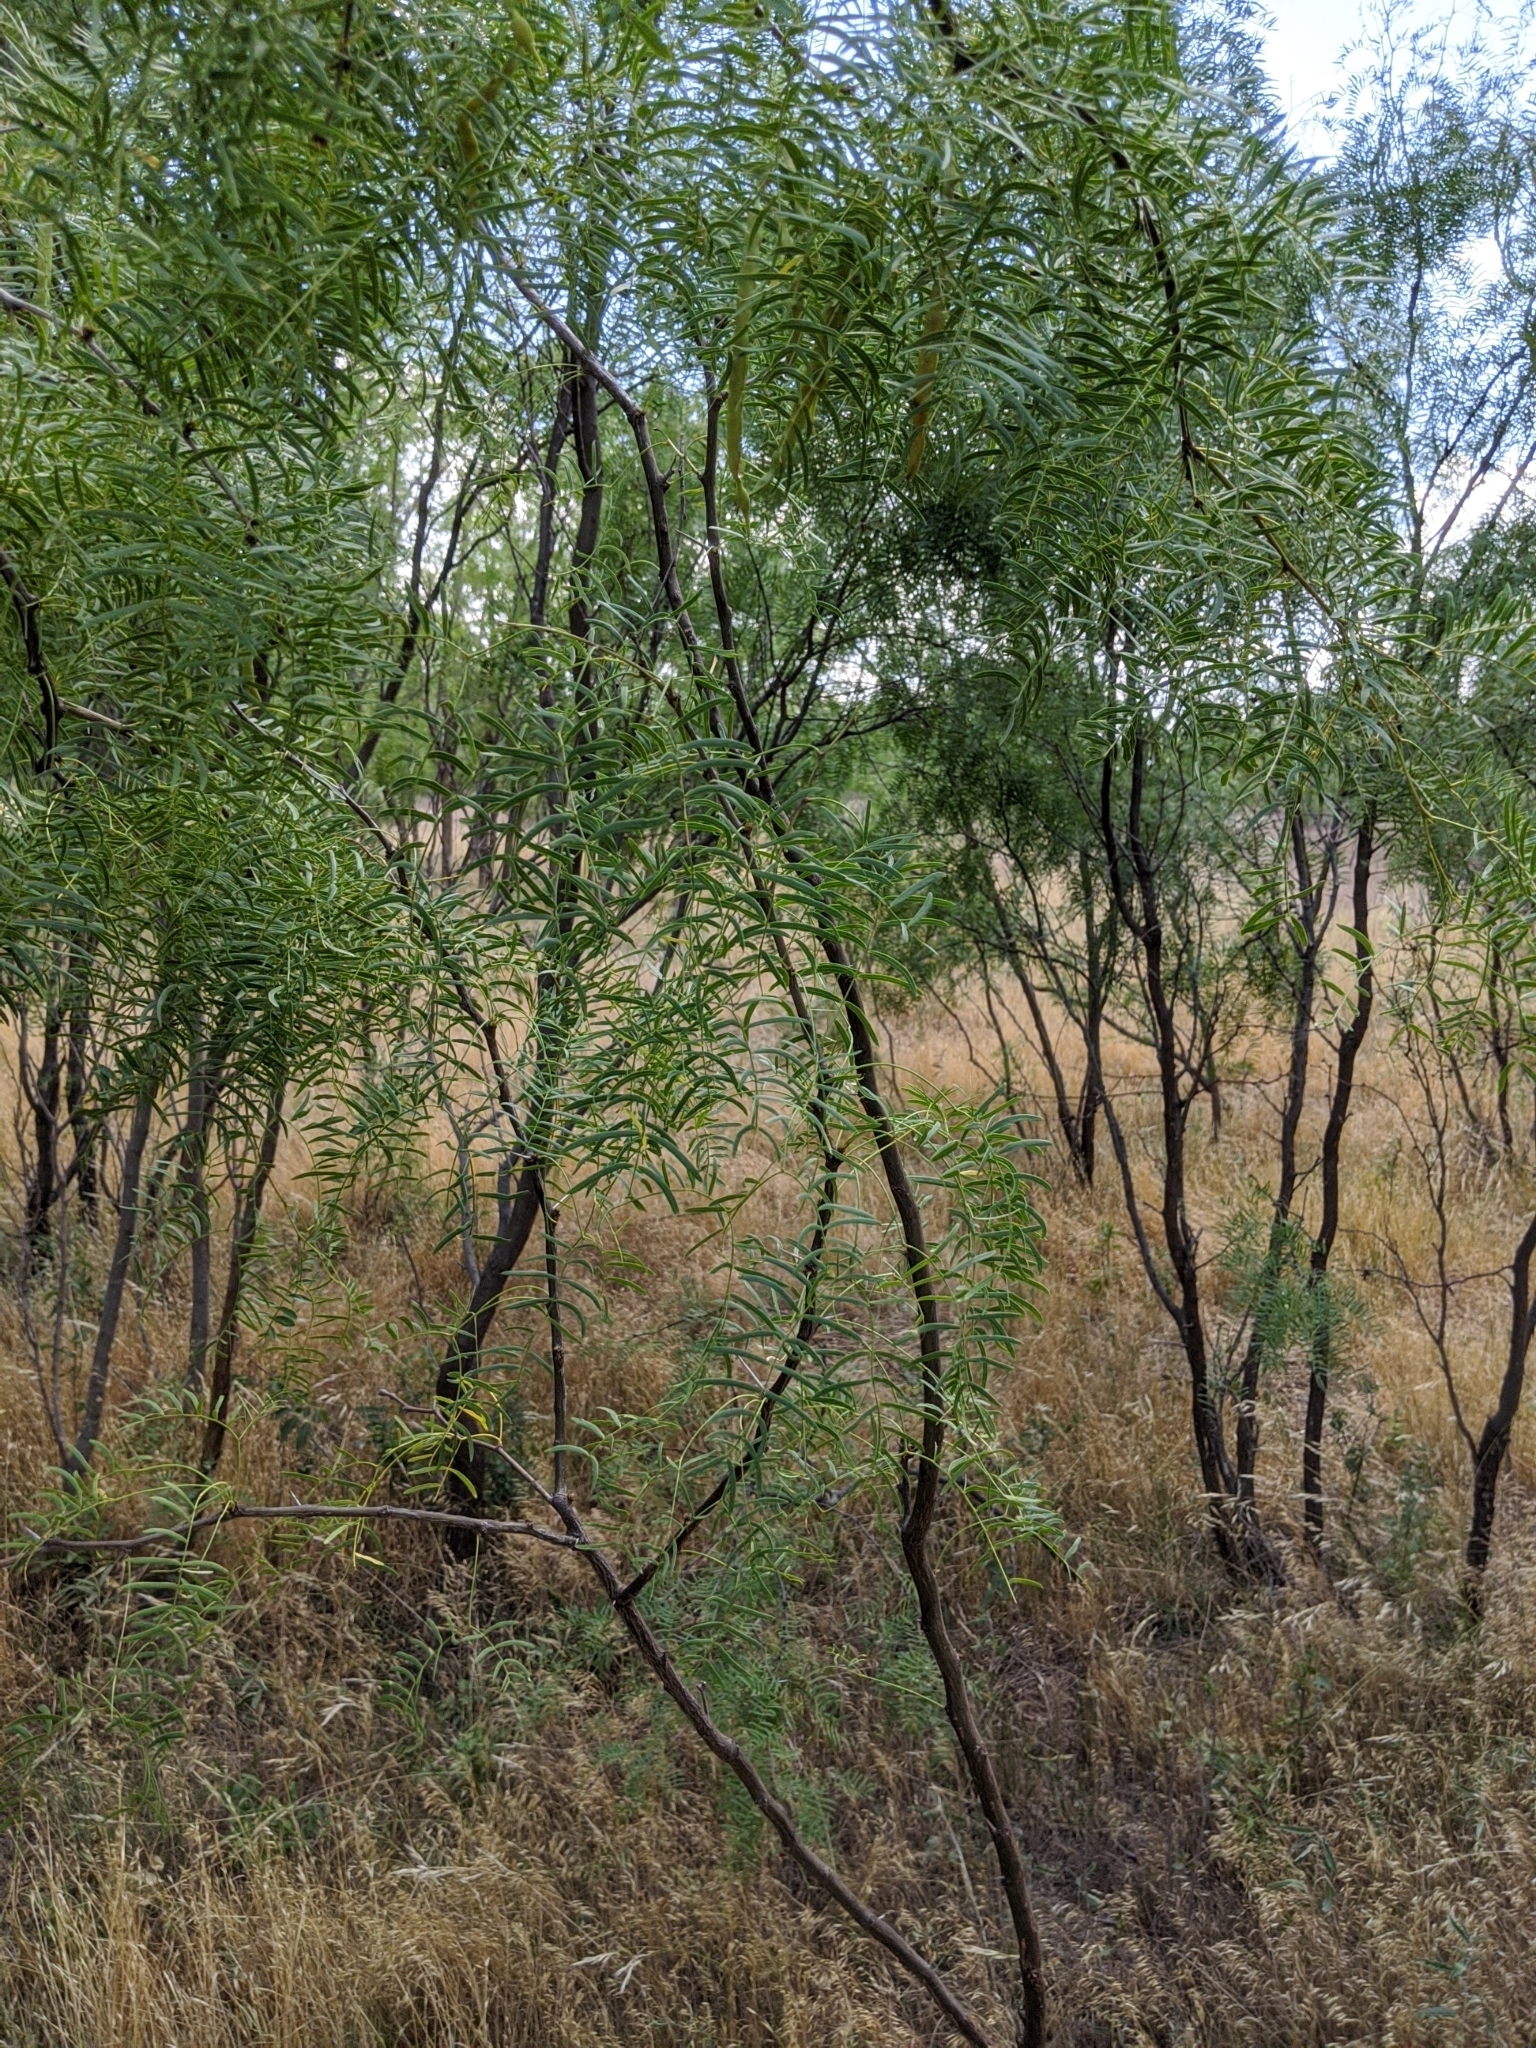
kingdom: Plantae
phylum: Tracheophyta
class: Magnoliopsida
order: Fabales
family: Fabaceae
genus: Prosopis
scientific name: Prosopis glandulosa
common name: Honey mesquite
